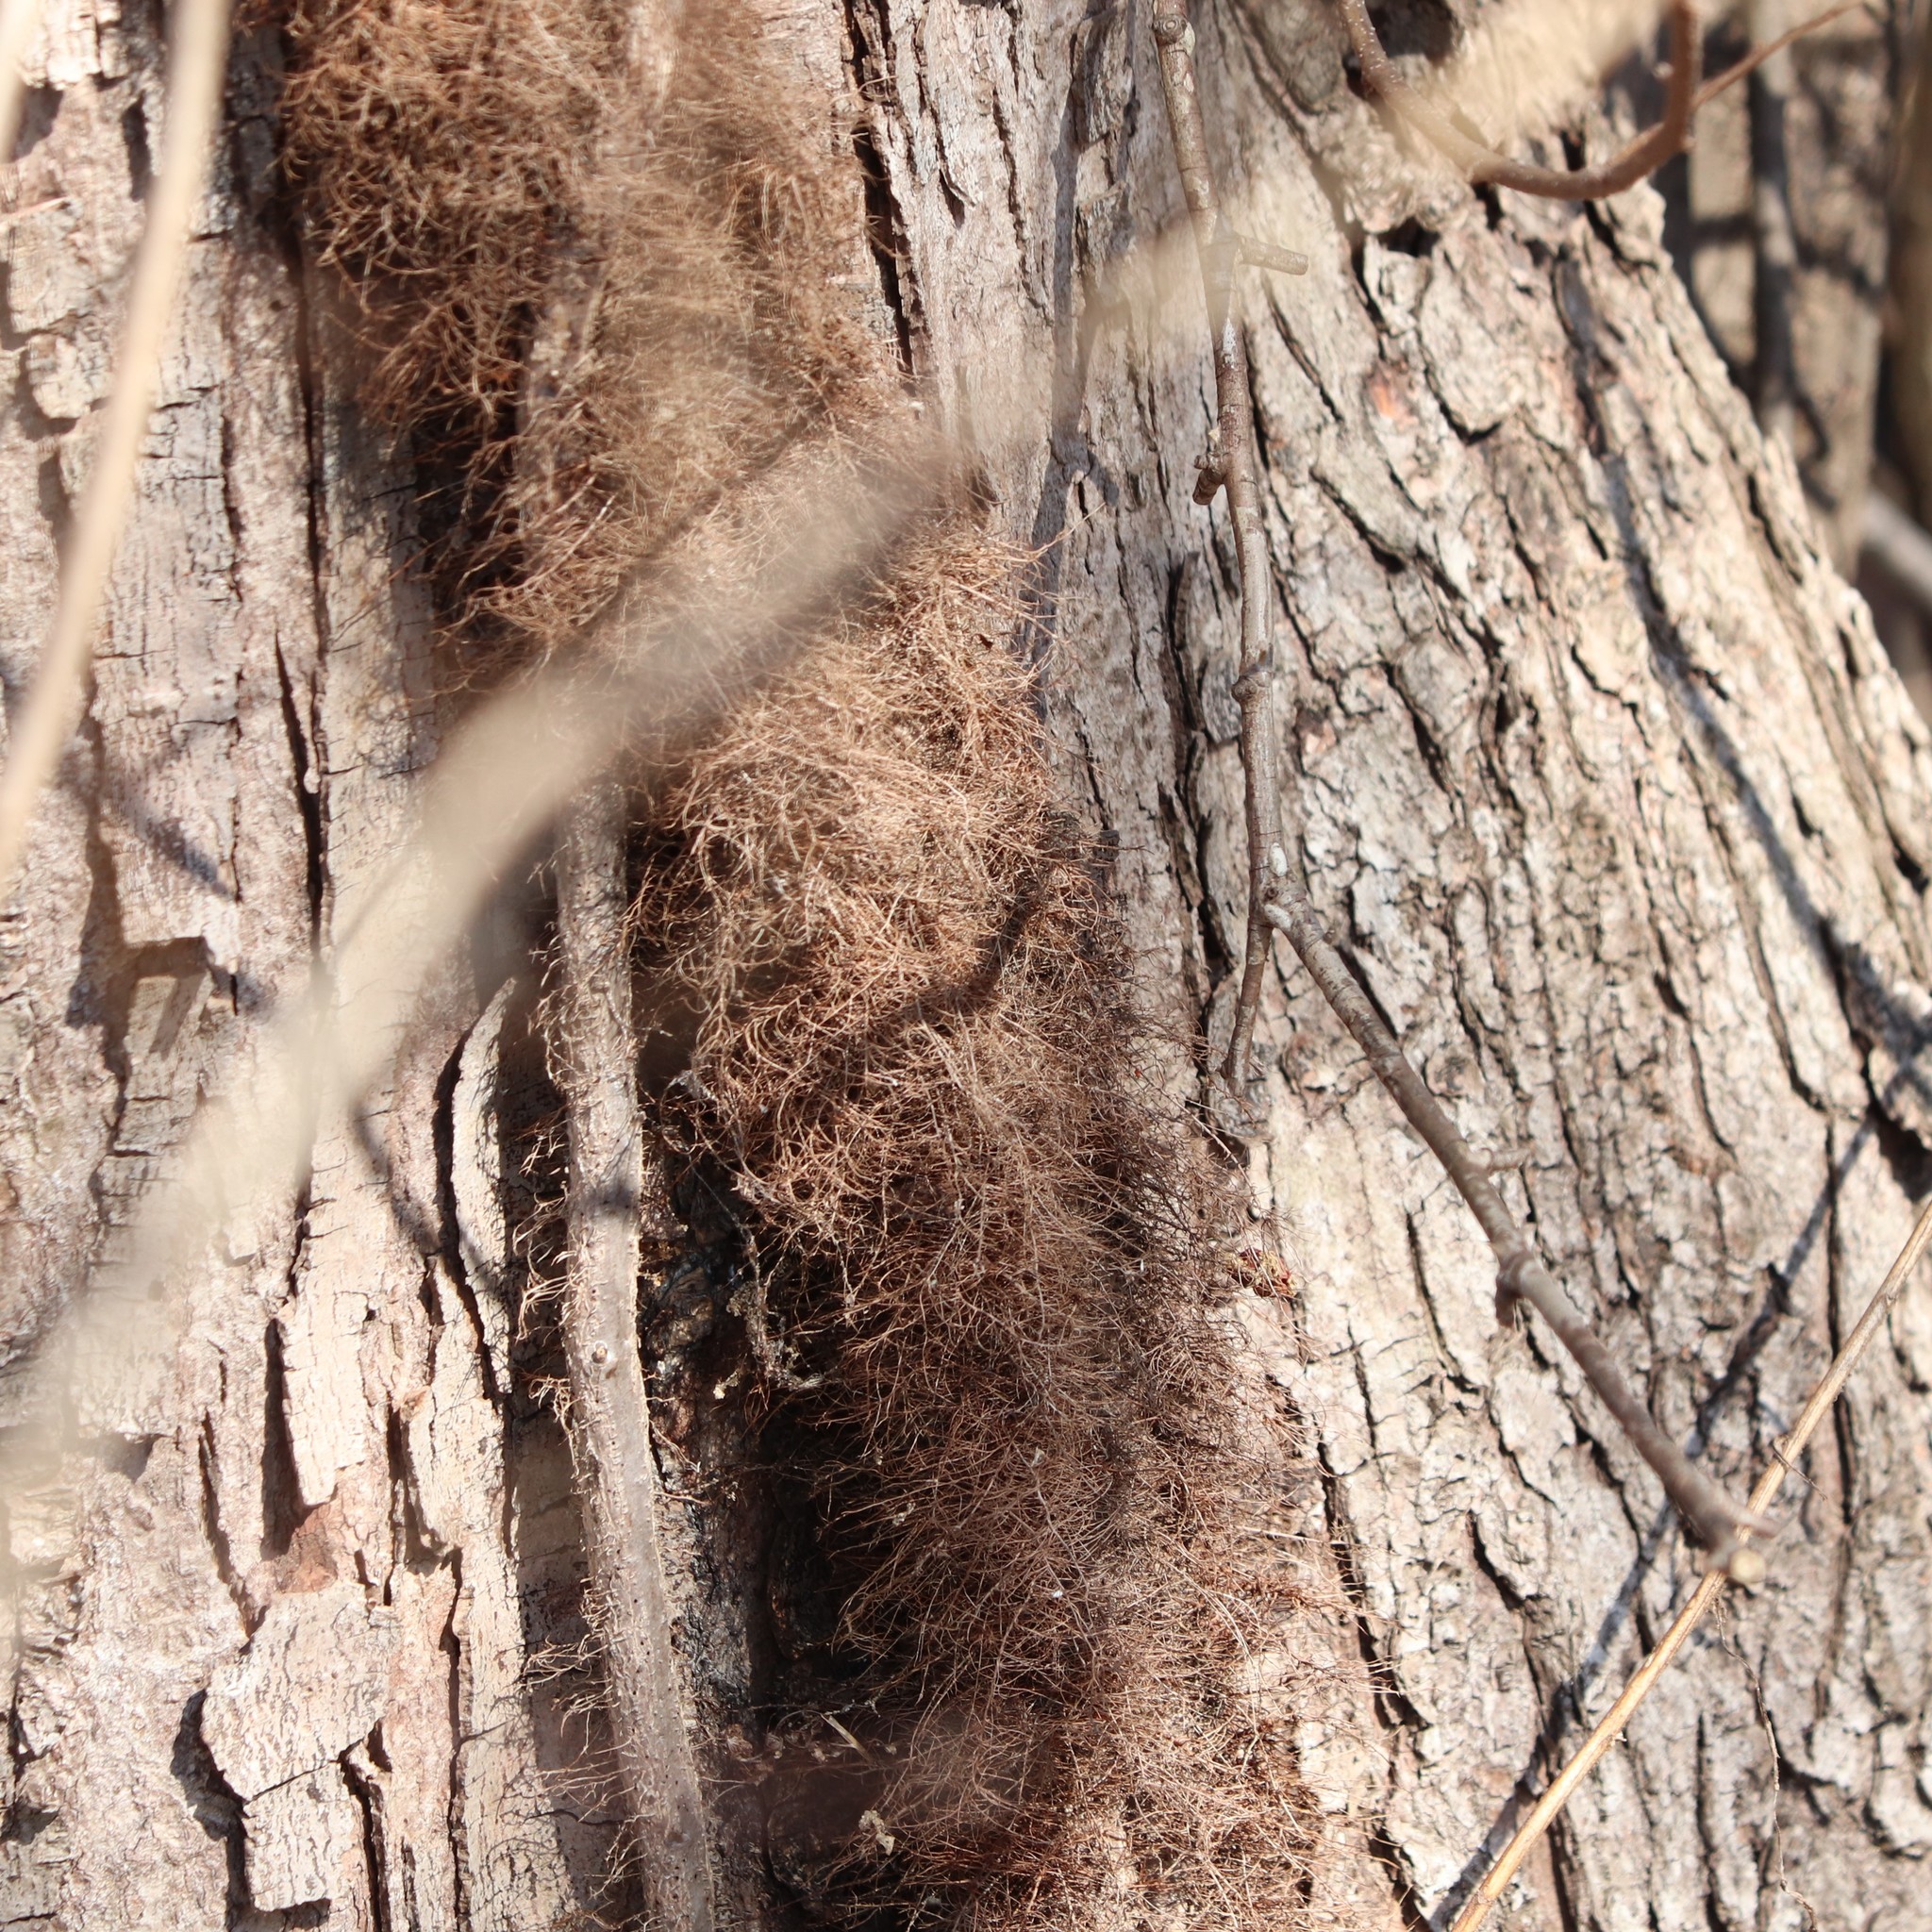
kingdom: Plantae
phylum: Tracheophyta
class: Magnoliopsida
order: Sapindales
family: Anacardiaceae
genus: Toxicodendron
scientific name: Toxicodendron radicans
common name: Poison ivy
